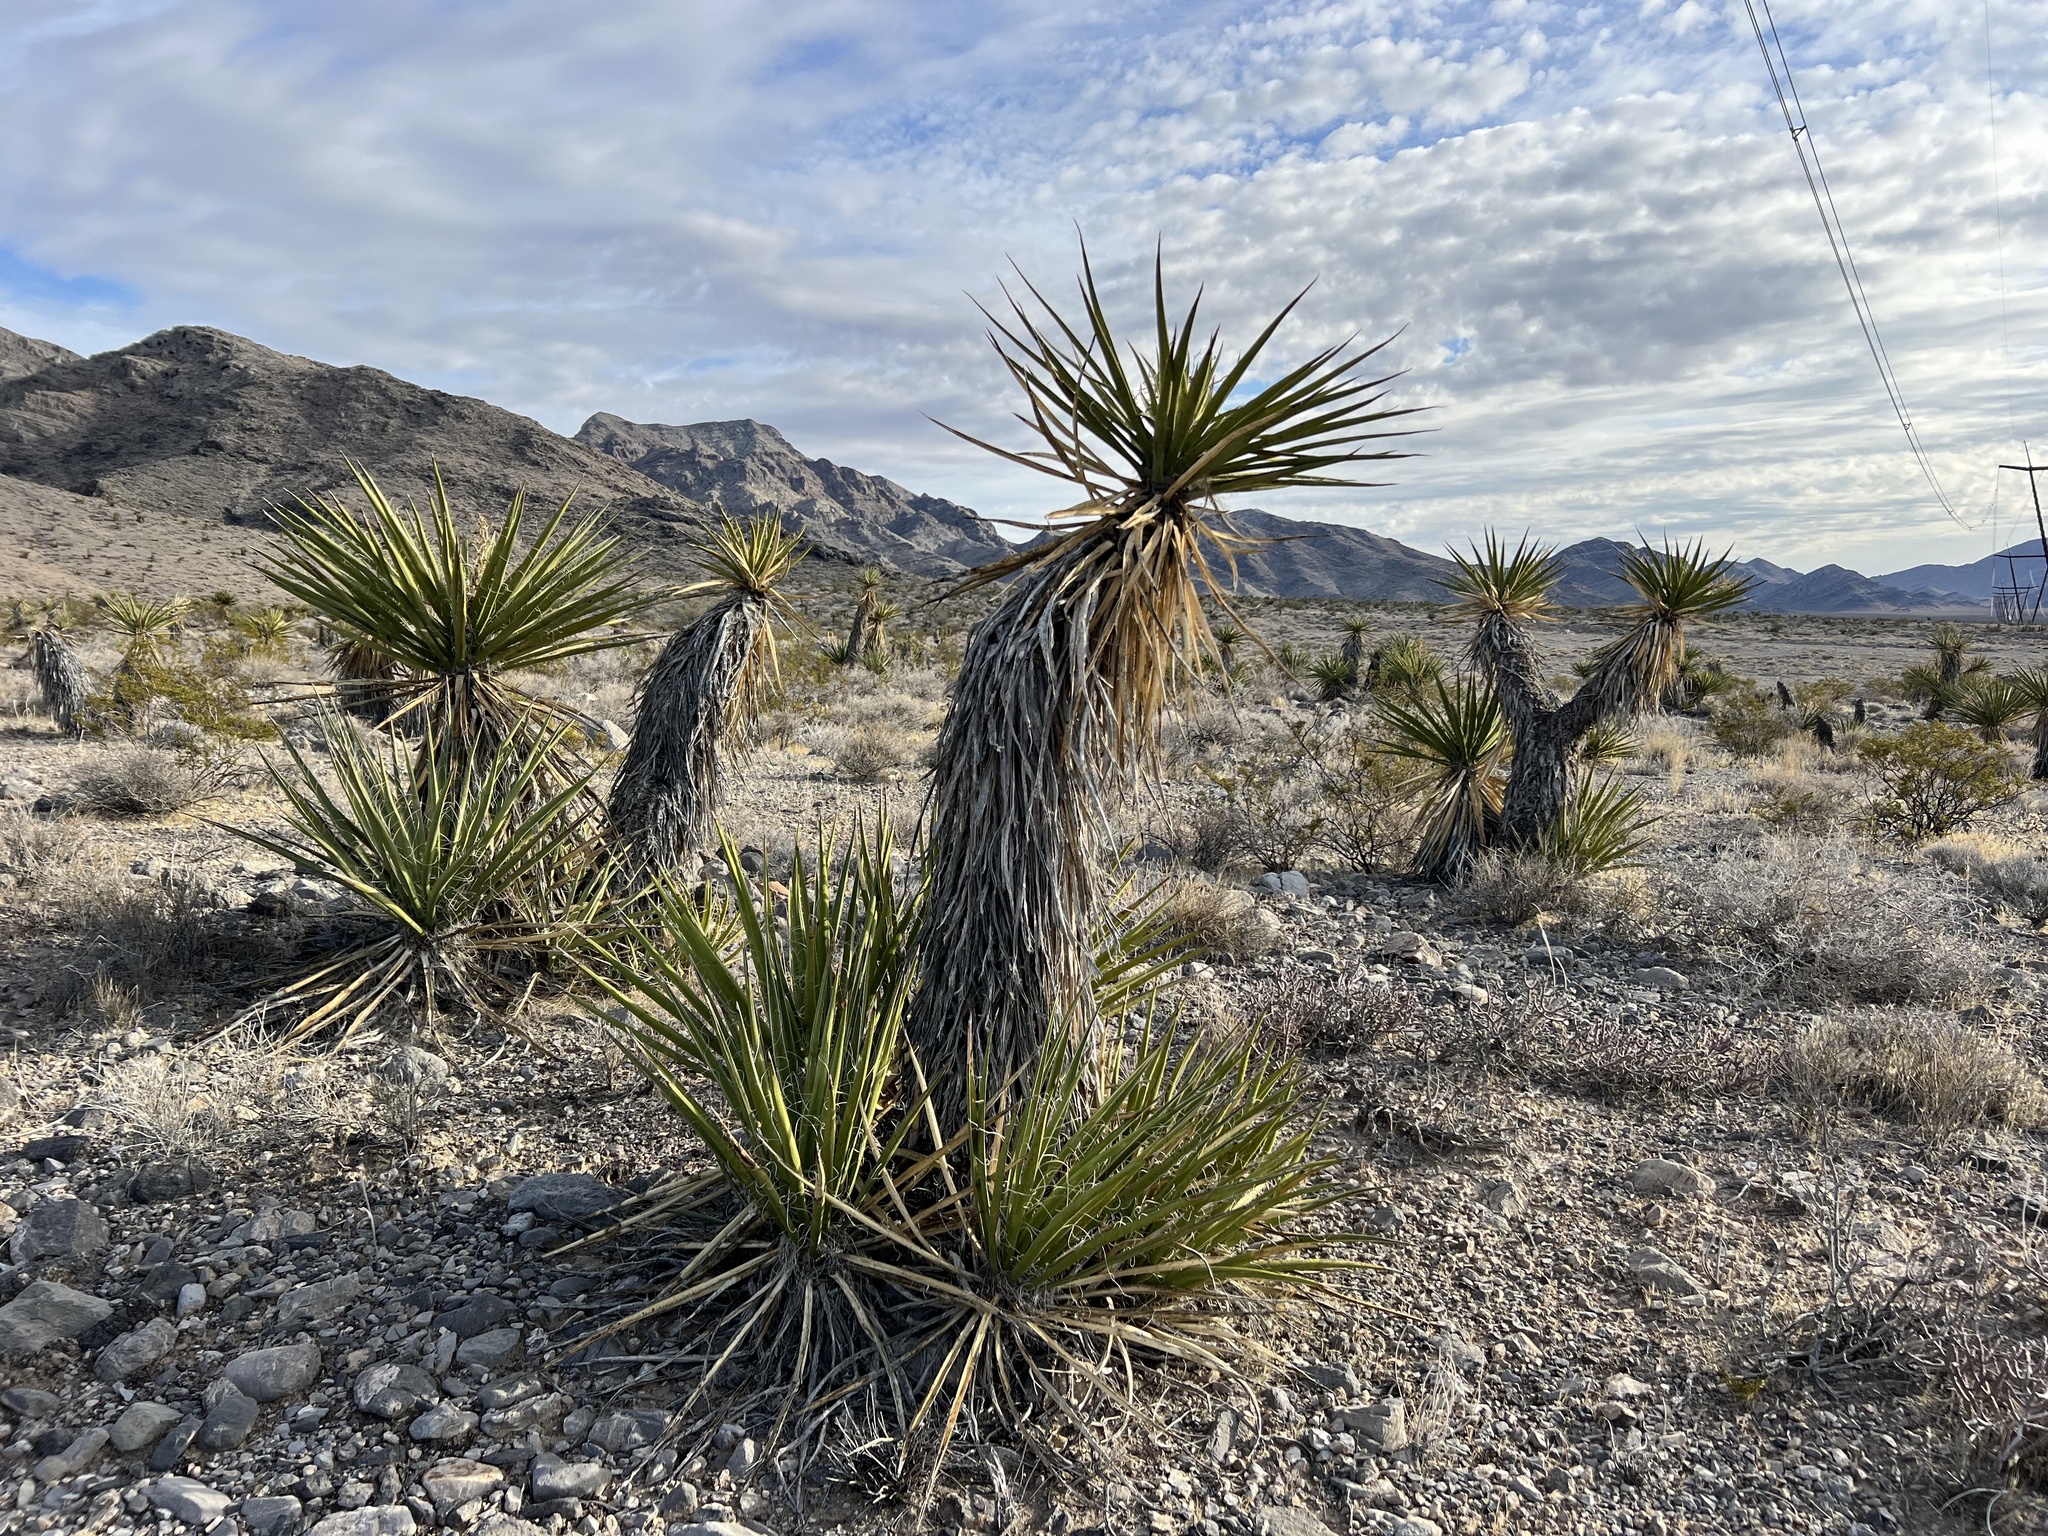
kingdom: Plantae
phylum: Tracheophyta
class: Liliopsida
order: Asparagales
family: Asparagaceae
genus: Yucca
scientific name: Yucca schidigera
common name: Mojave yucca
